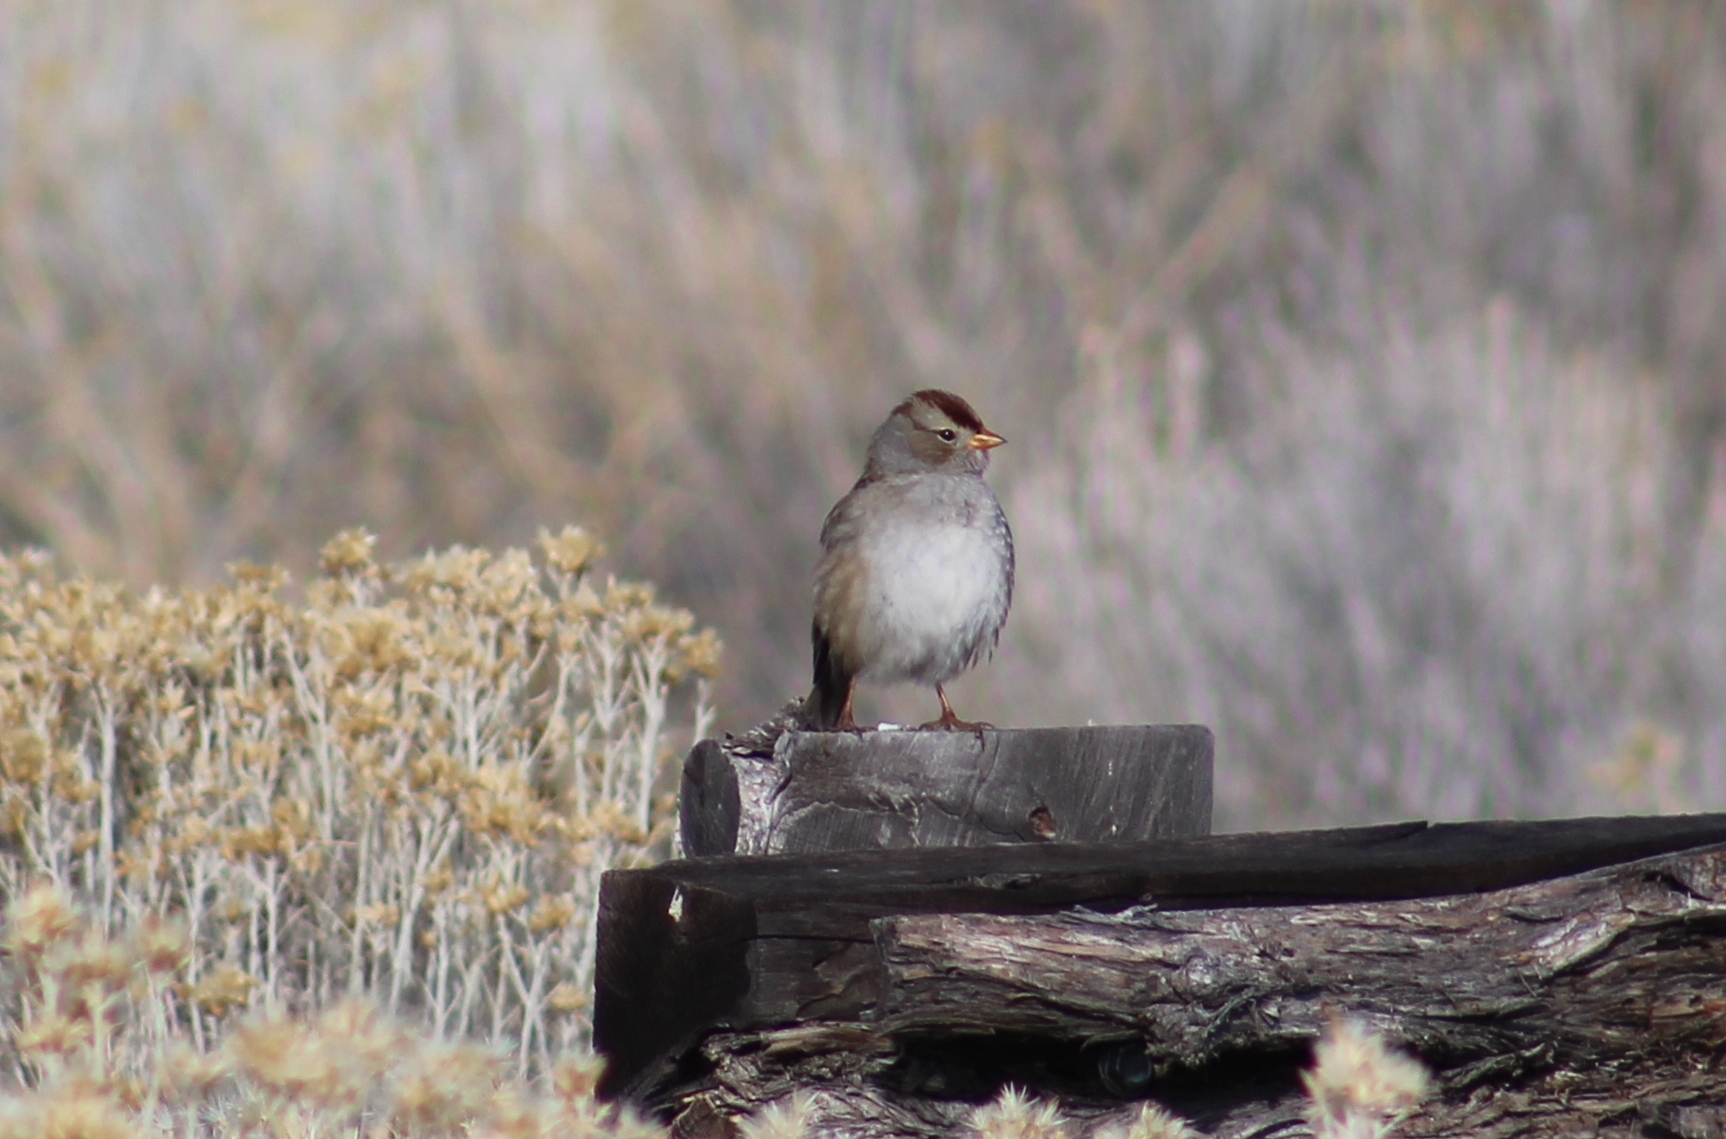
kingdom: Animalia
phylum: Chordata
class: Aves
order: Passeriformes
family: Passerellidae
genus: Zonotrichia
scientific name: Zonotrichia leucophrys
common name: White-crowned sparrow
